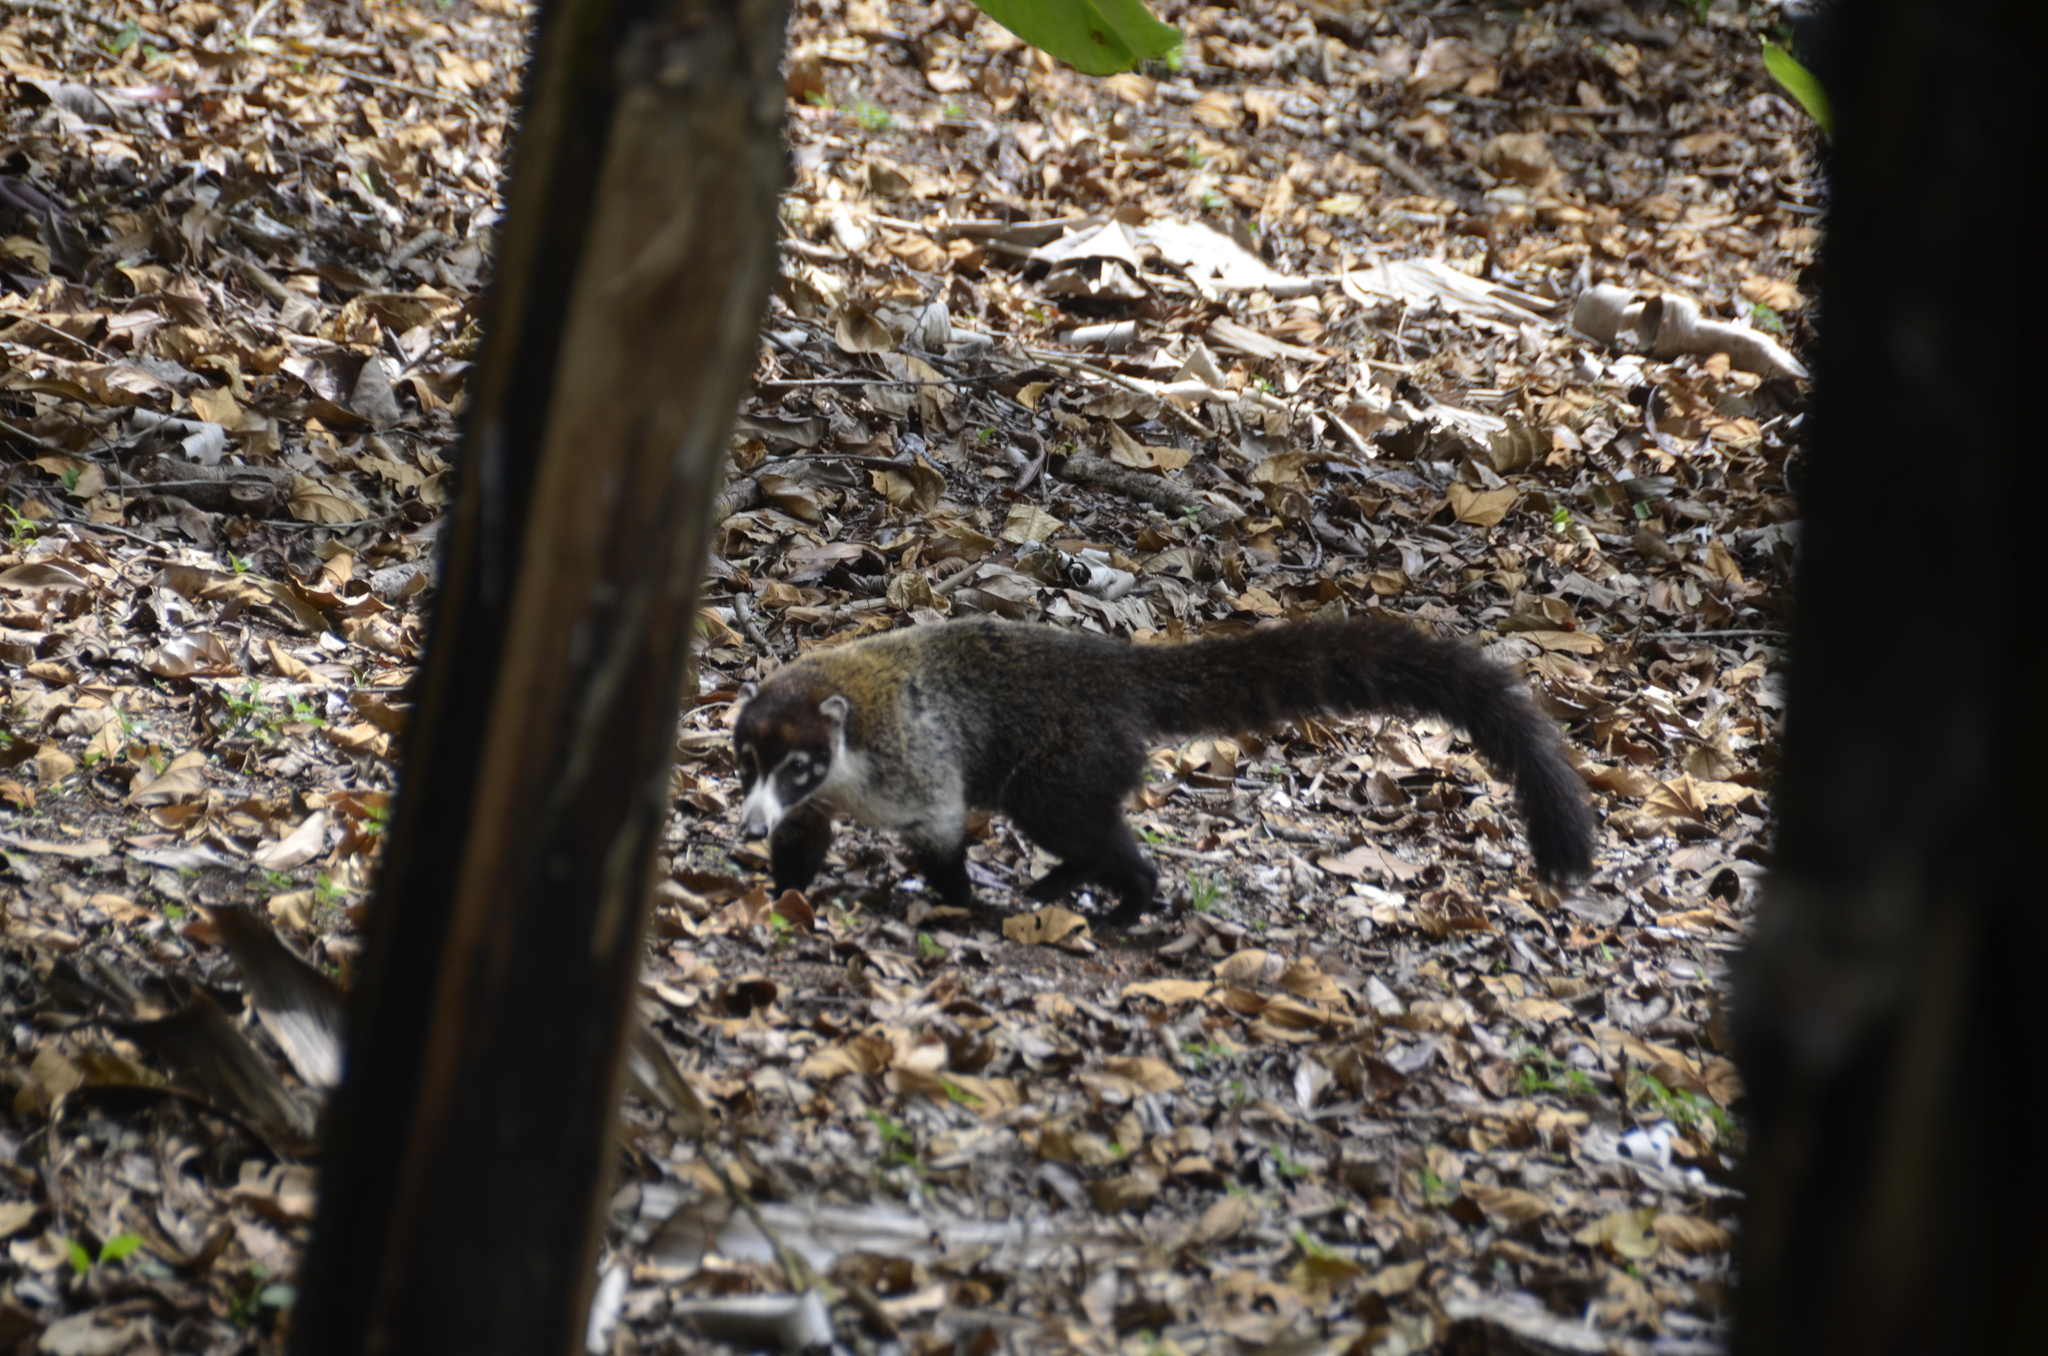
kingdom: Animalia
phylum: Chordata
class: Mammalia
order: Carnivora
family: Procyonidae
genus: Nasua
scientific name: Nasua narica
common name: White-nosed coati
